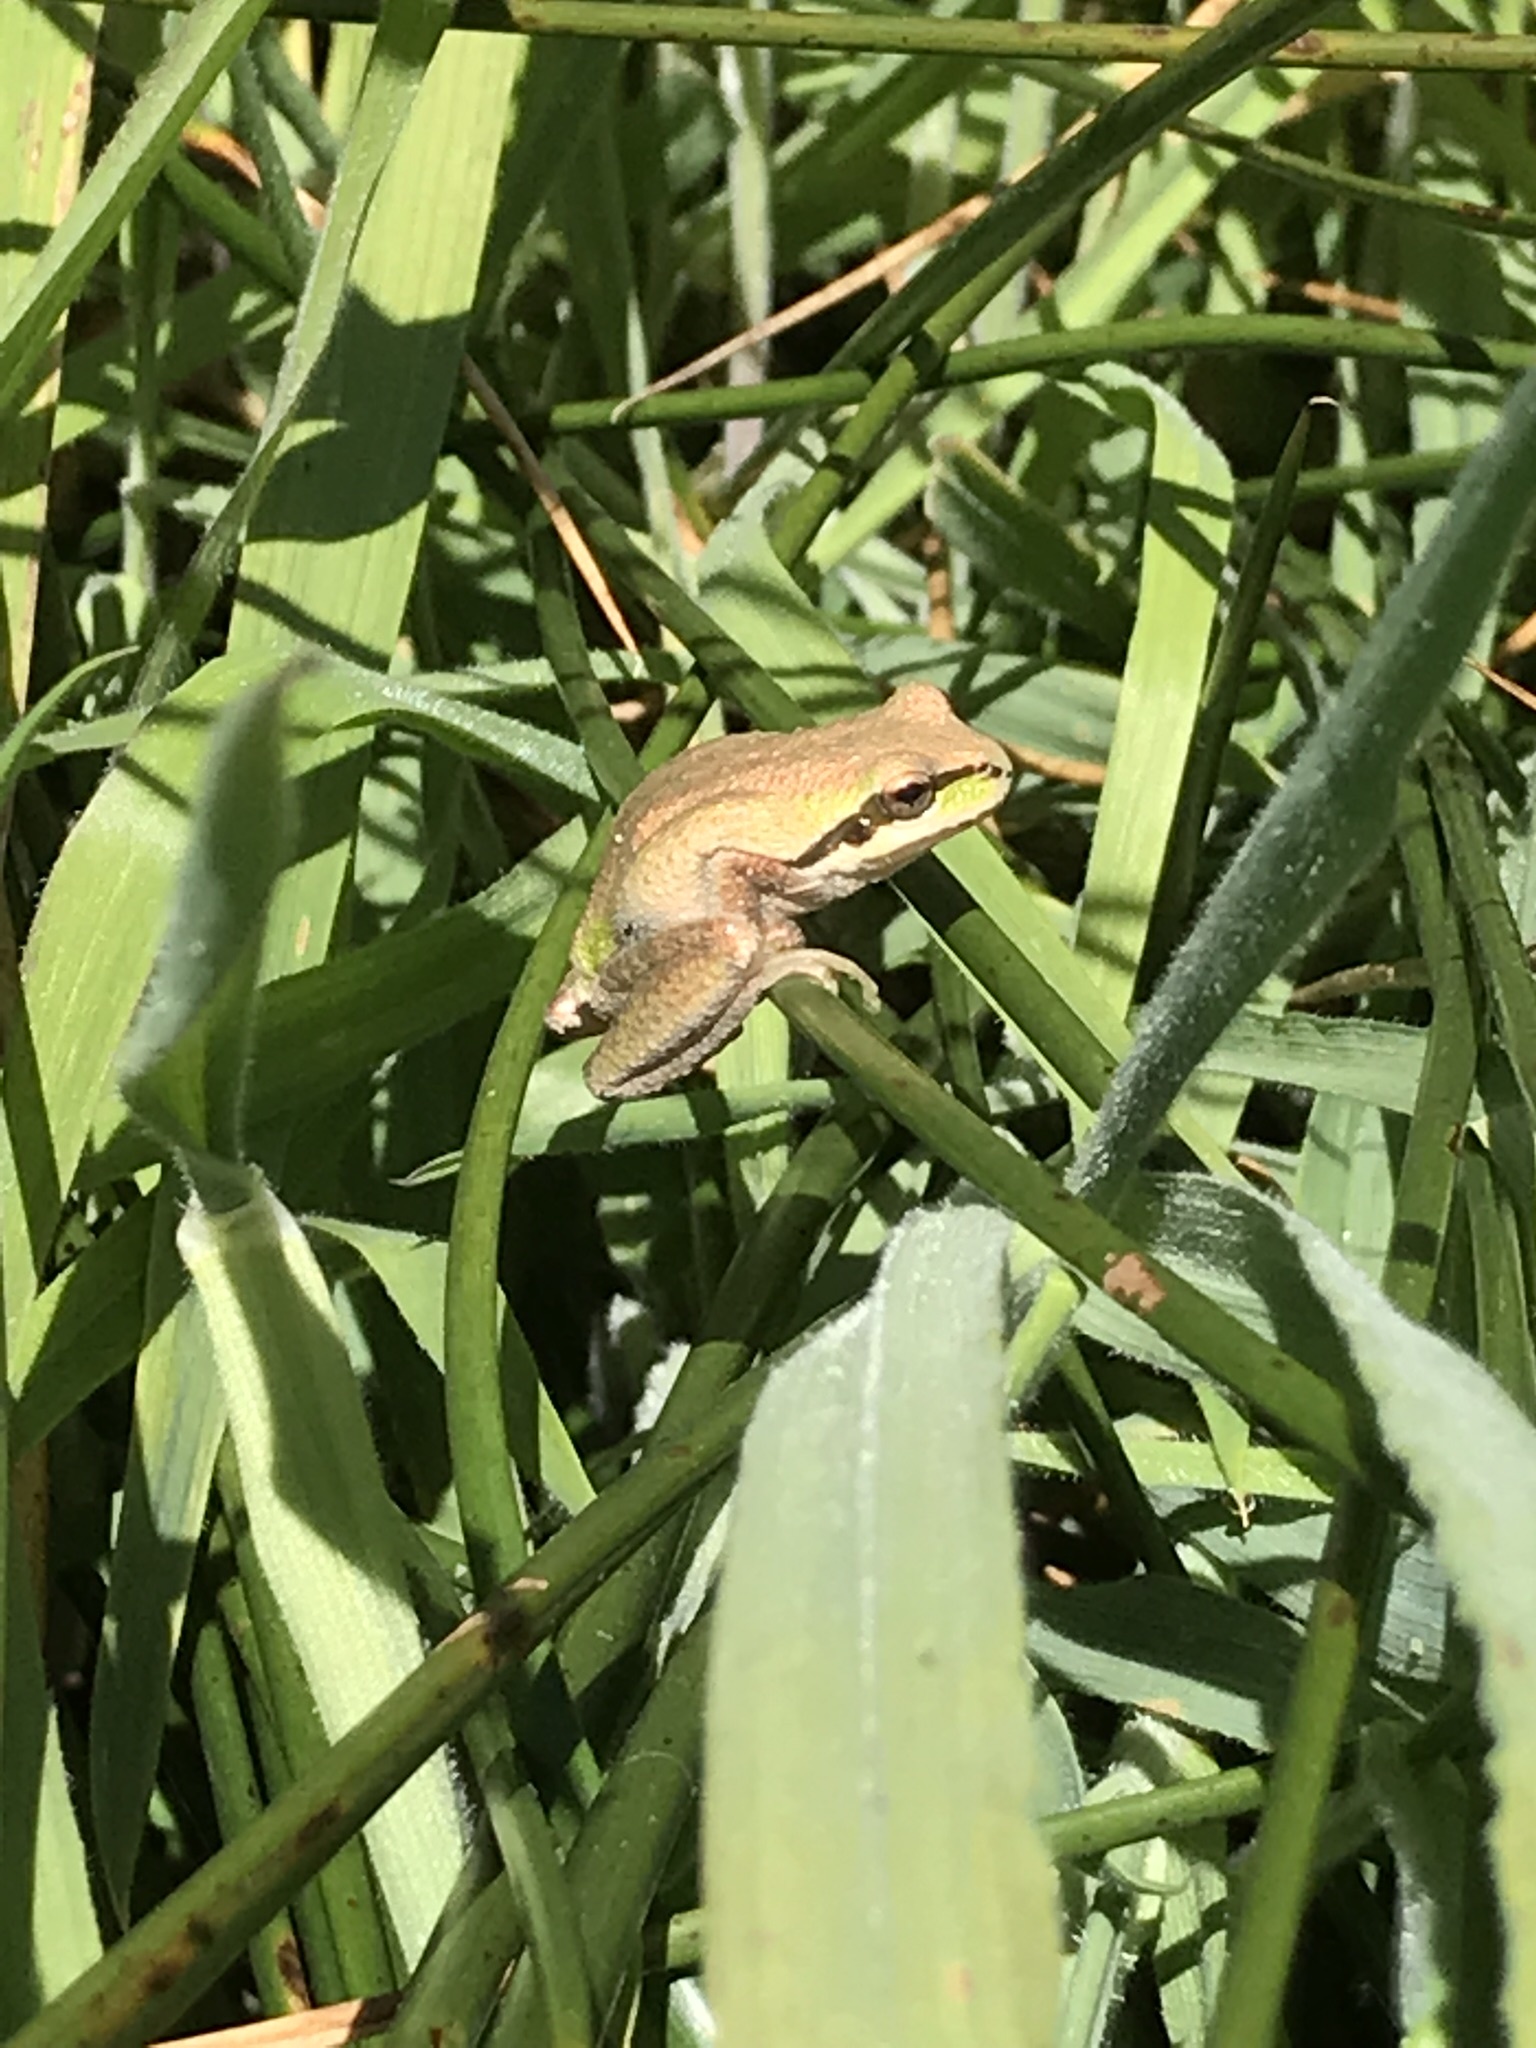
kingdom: Animalia
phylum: Chordata
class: Amphibia
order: Anura
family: Hylidae
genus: Pseudacris
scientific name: Pseudacris regilla
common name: Pacific chorus frog
